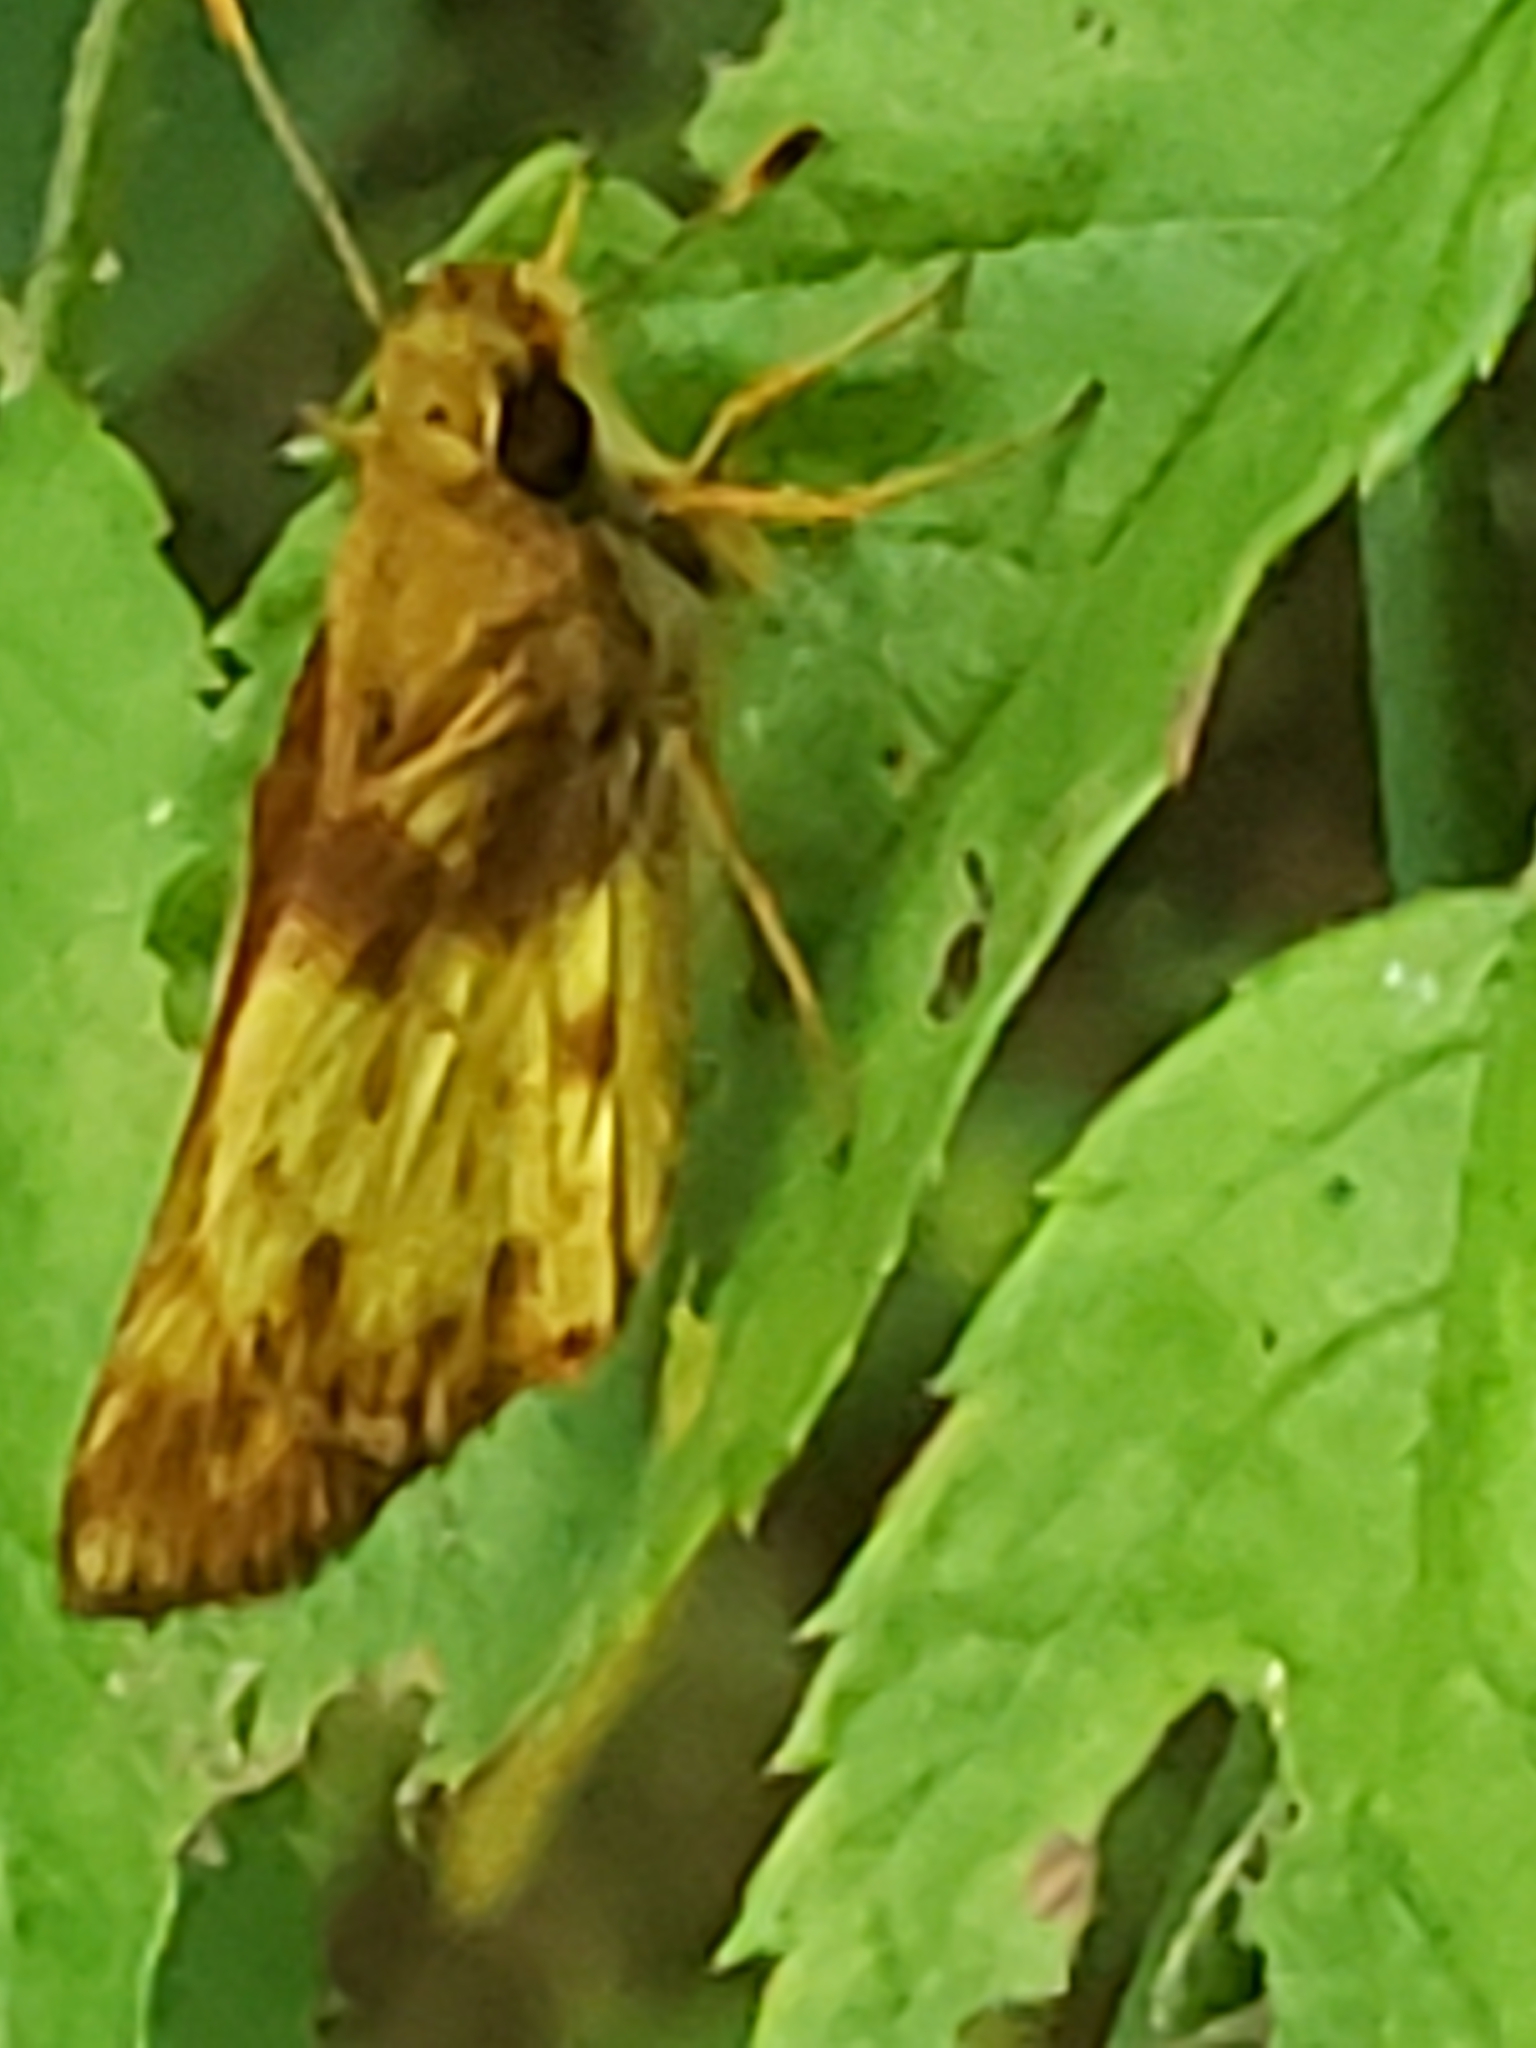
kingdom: Animalia
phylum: Arthropoda
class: Insecta
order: Lepidoptera
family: Hesperiidae
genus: Lon
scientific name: Lon zabulon
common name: Zabulon skipper
